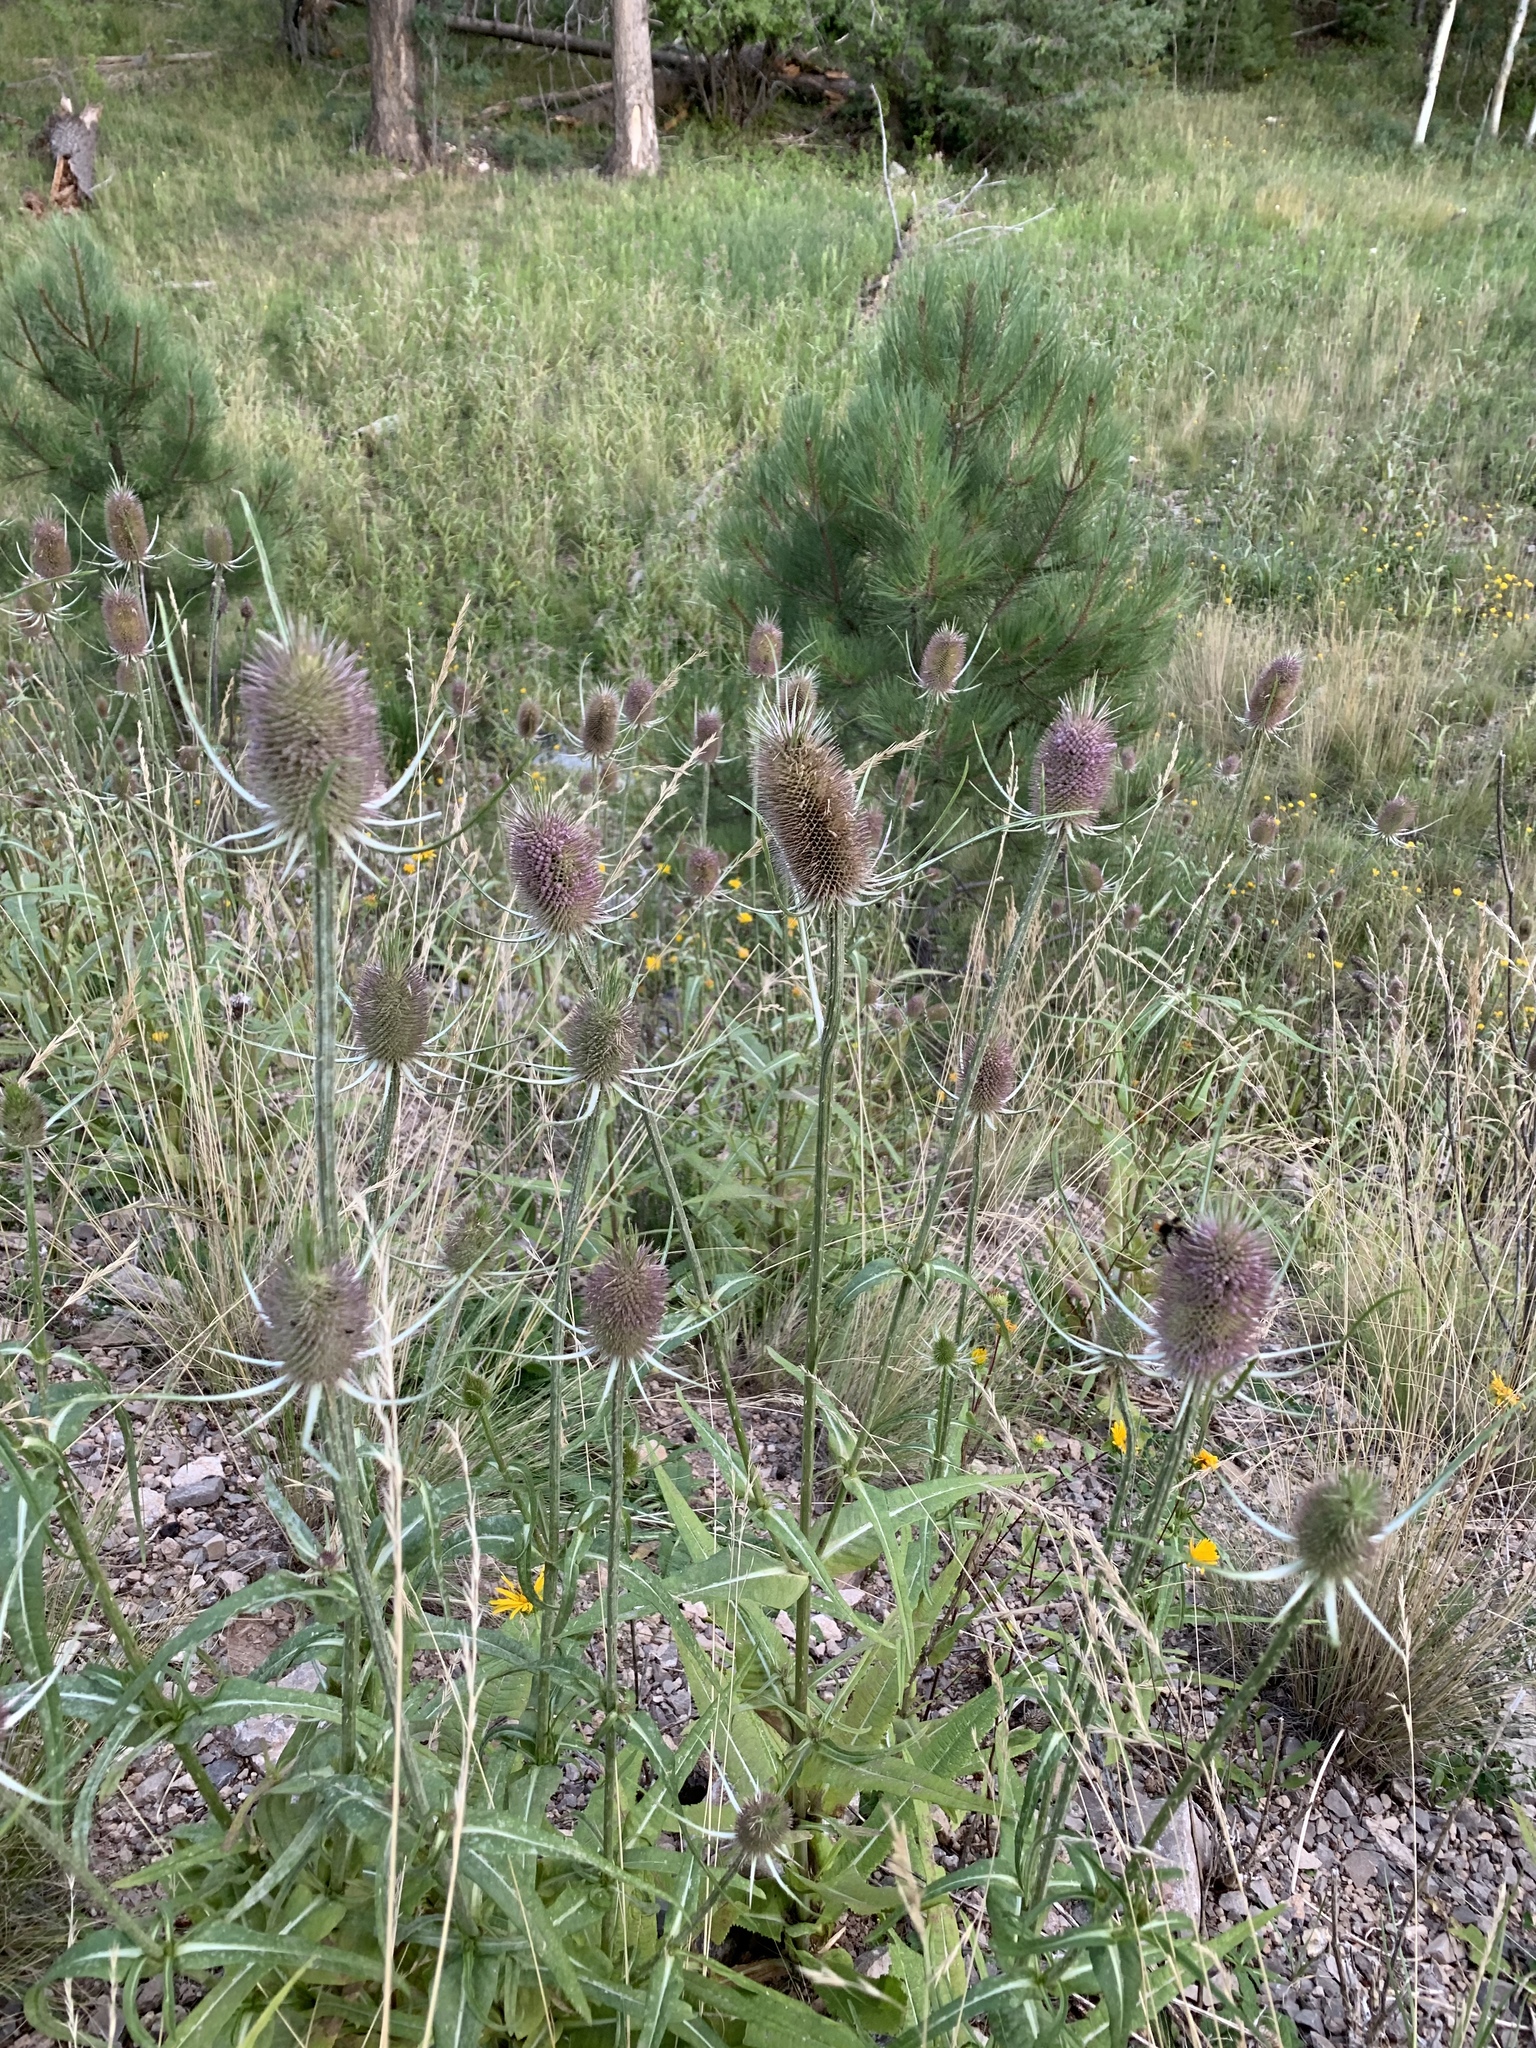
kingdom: Plantae
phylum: Tracheophyta
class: Magnoliopsida
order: Dipsacales
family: Caprifoliaceae
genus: Dipsacus
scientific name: Dipsacus fullonum
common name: Teasel
